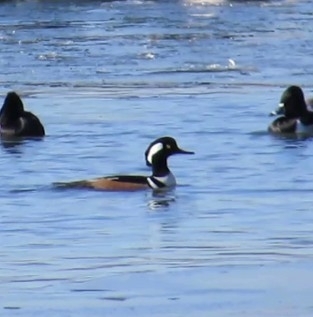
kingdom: Animalia
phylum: Chordata
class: Aves
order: Anseriformes
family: Anatidae
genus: Lophodytes
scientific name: Lophodytes cucullatus
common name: Hooded merganser
